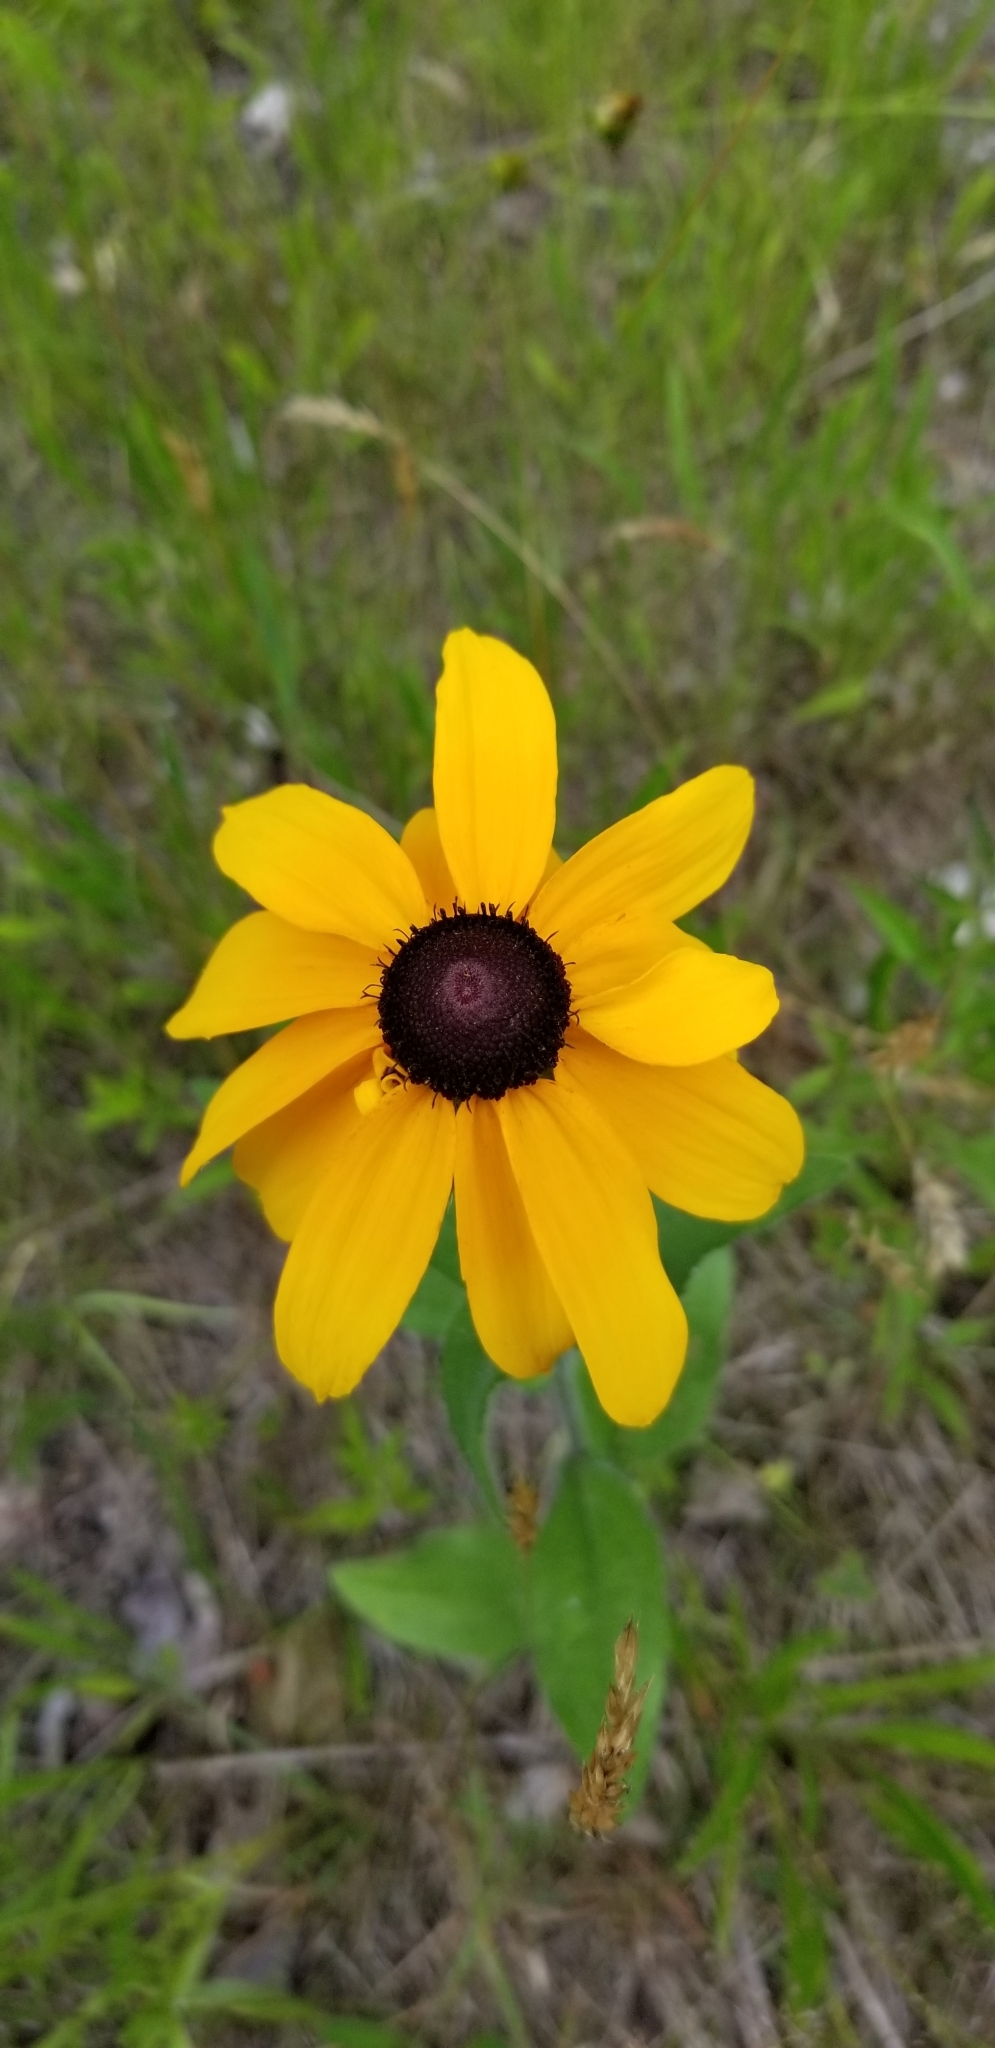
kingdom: Plantae
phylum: Tracheophyta
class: Magnoliopsida
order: Asterales
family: Asteraceae
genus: Rudbeckia
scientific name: Rudbeckia hirta
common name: Black-eyed-susan
